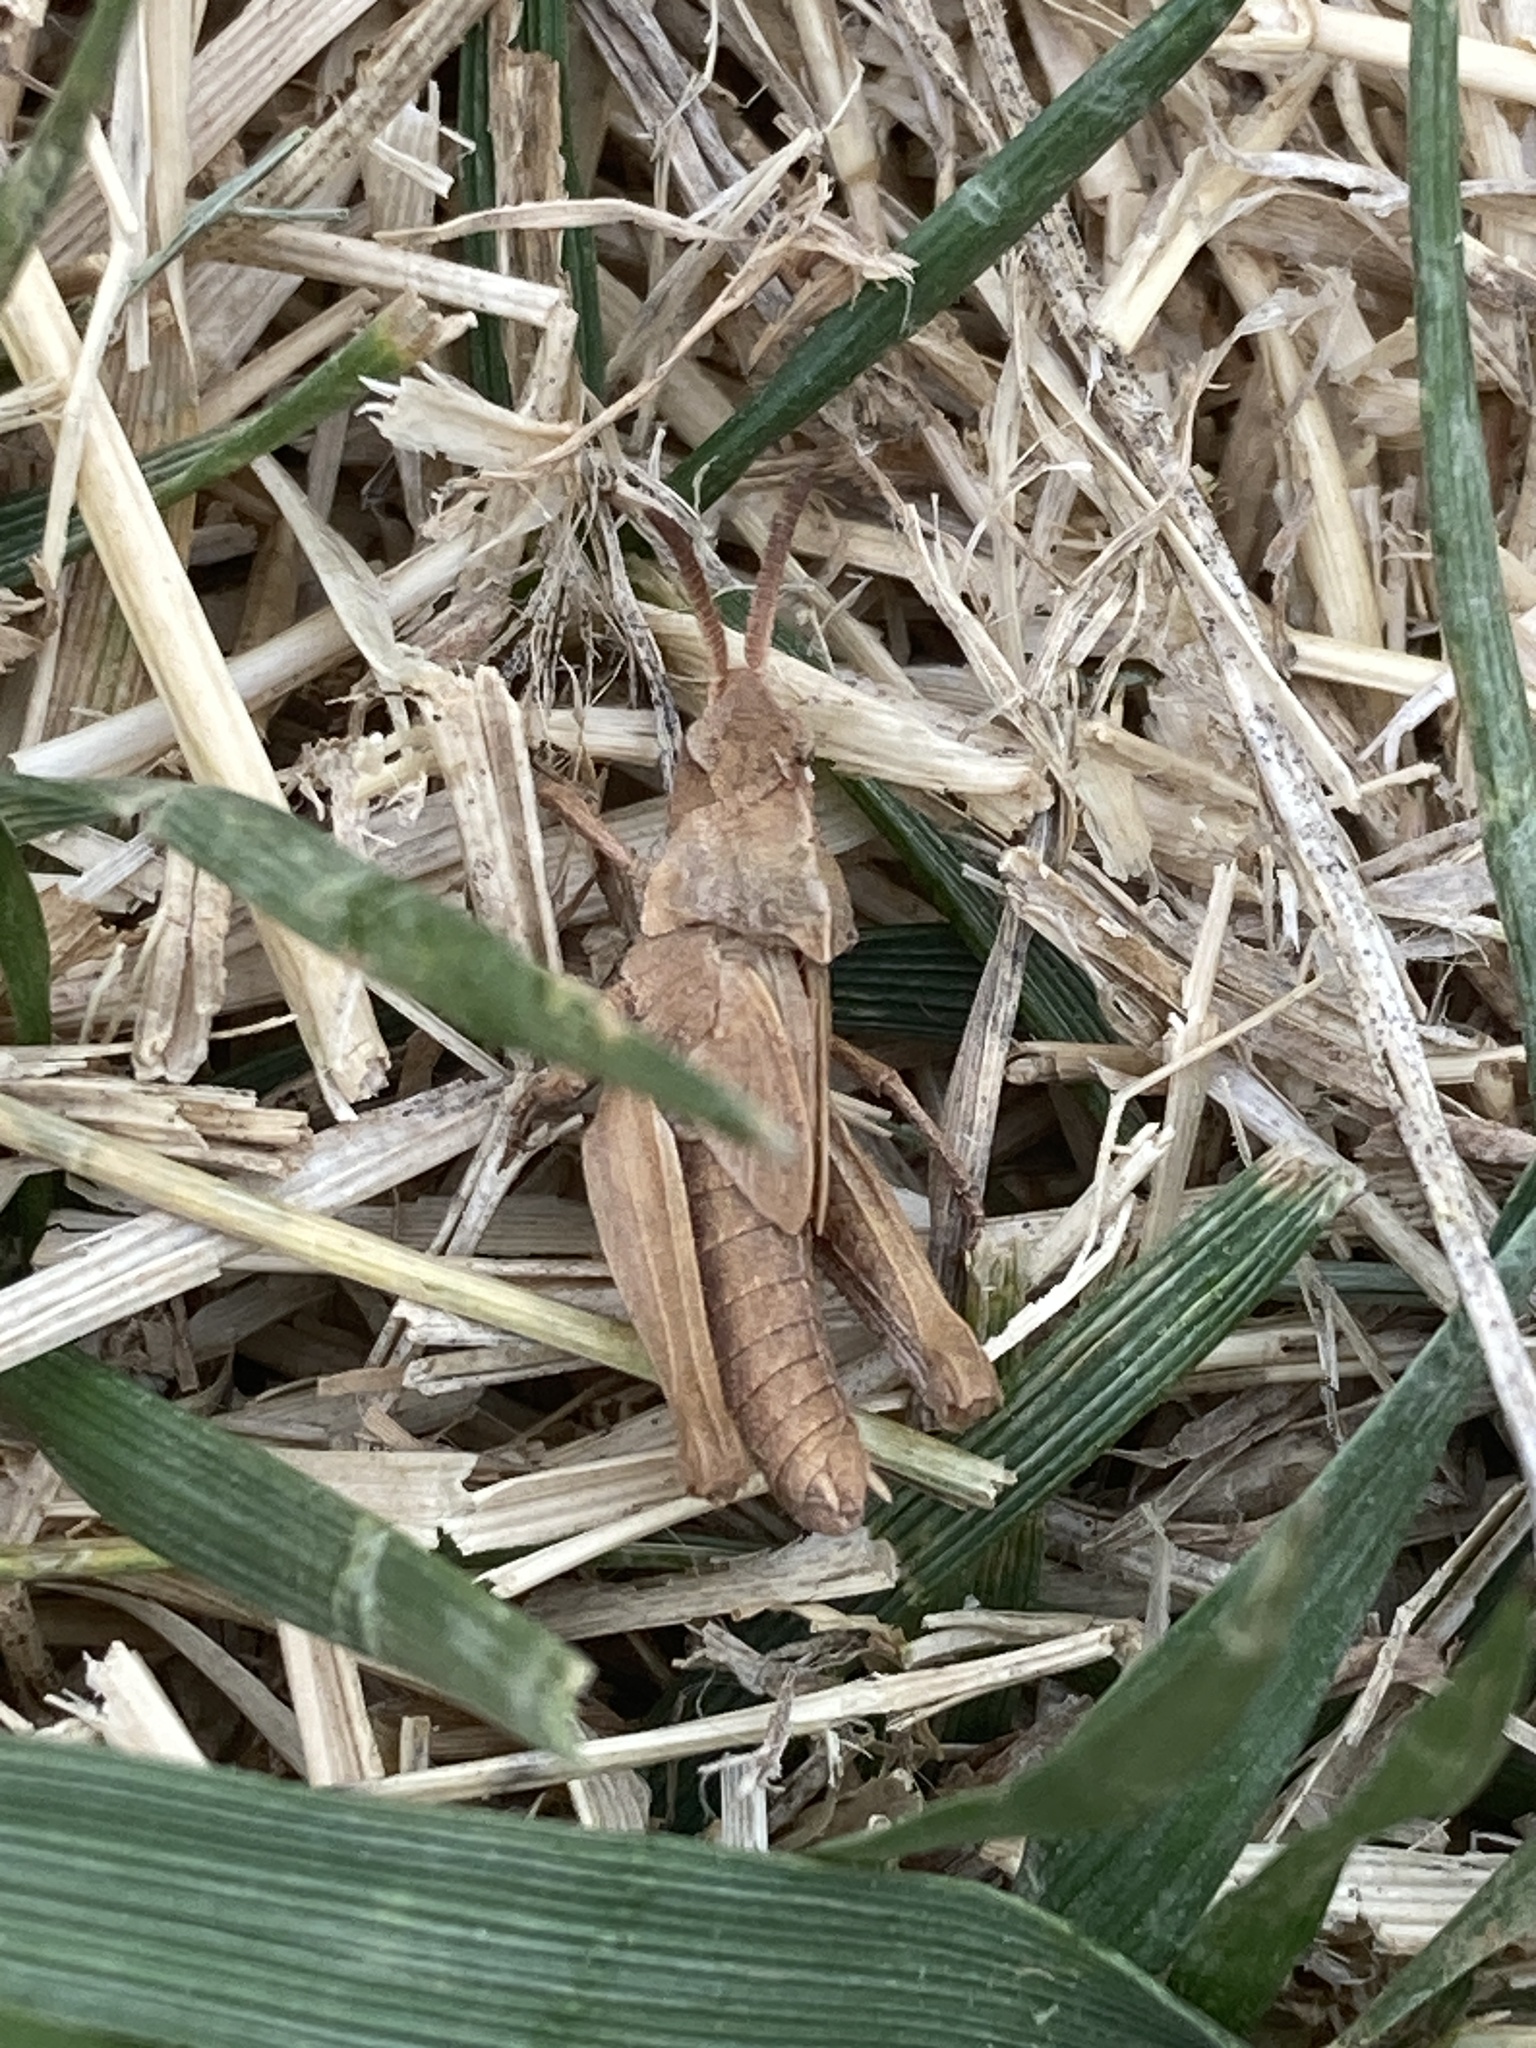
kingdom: Animalia
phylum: Arthropoda
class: Insecta
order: Orthoptera
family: Acrididae
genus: Chortophaga
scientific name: Chortophaga viridifasciata
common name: Green-striped grasshopper
